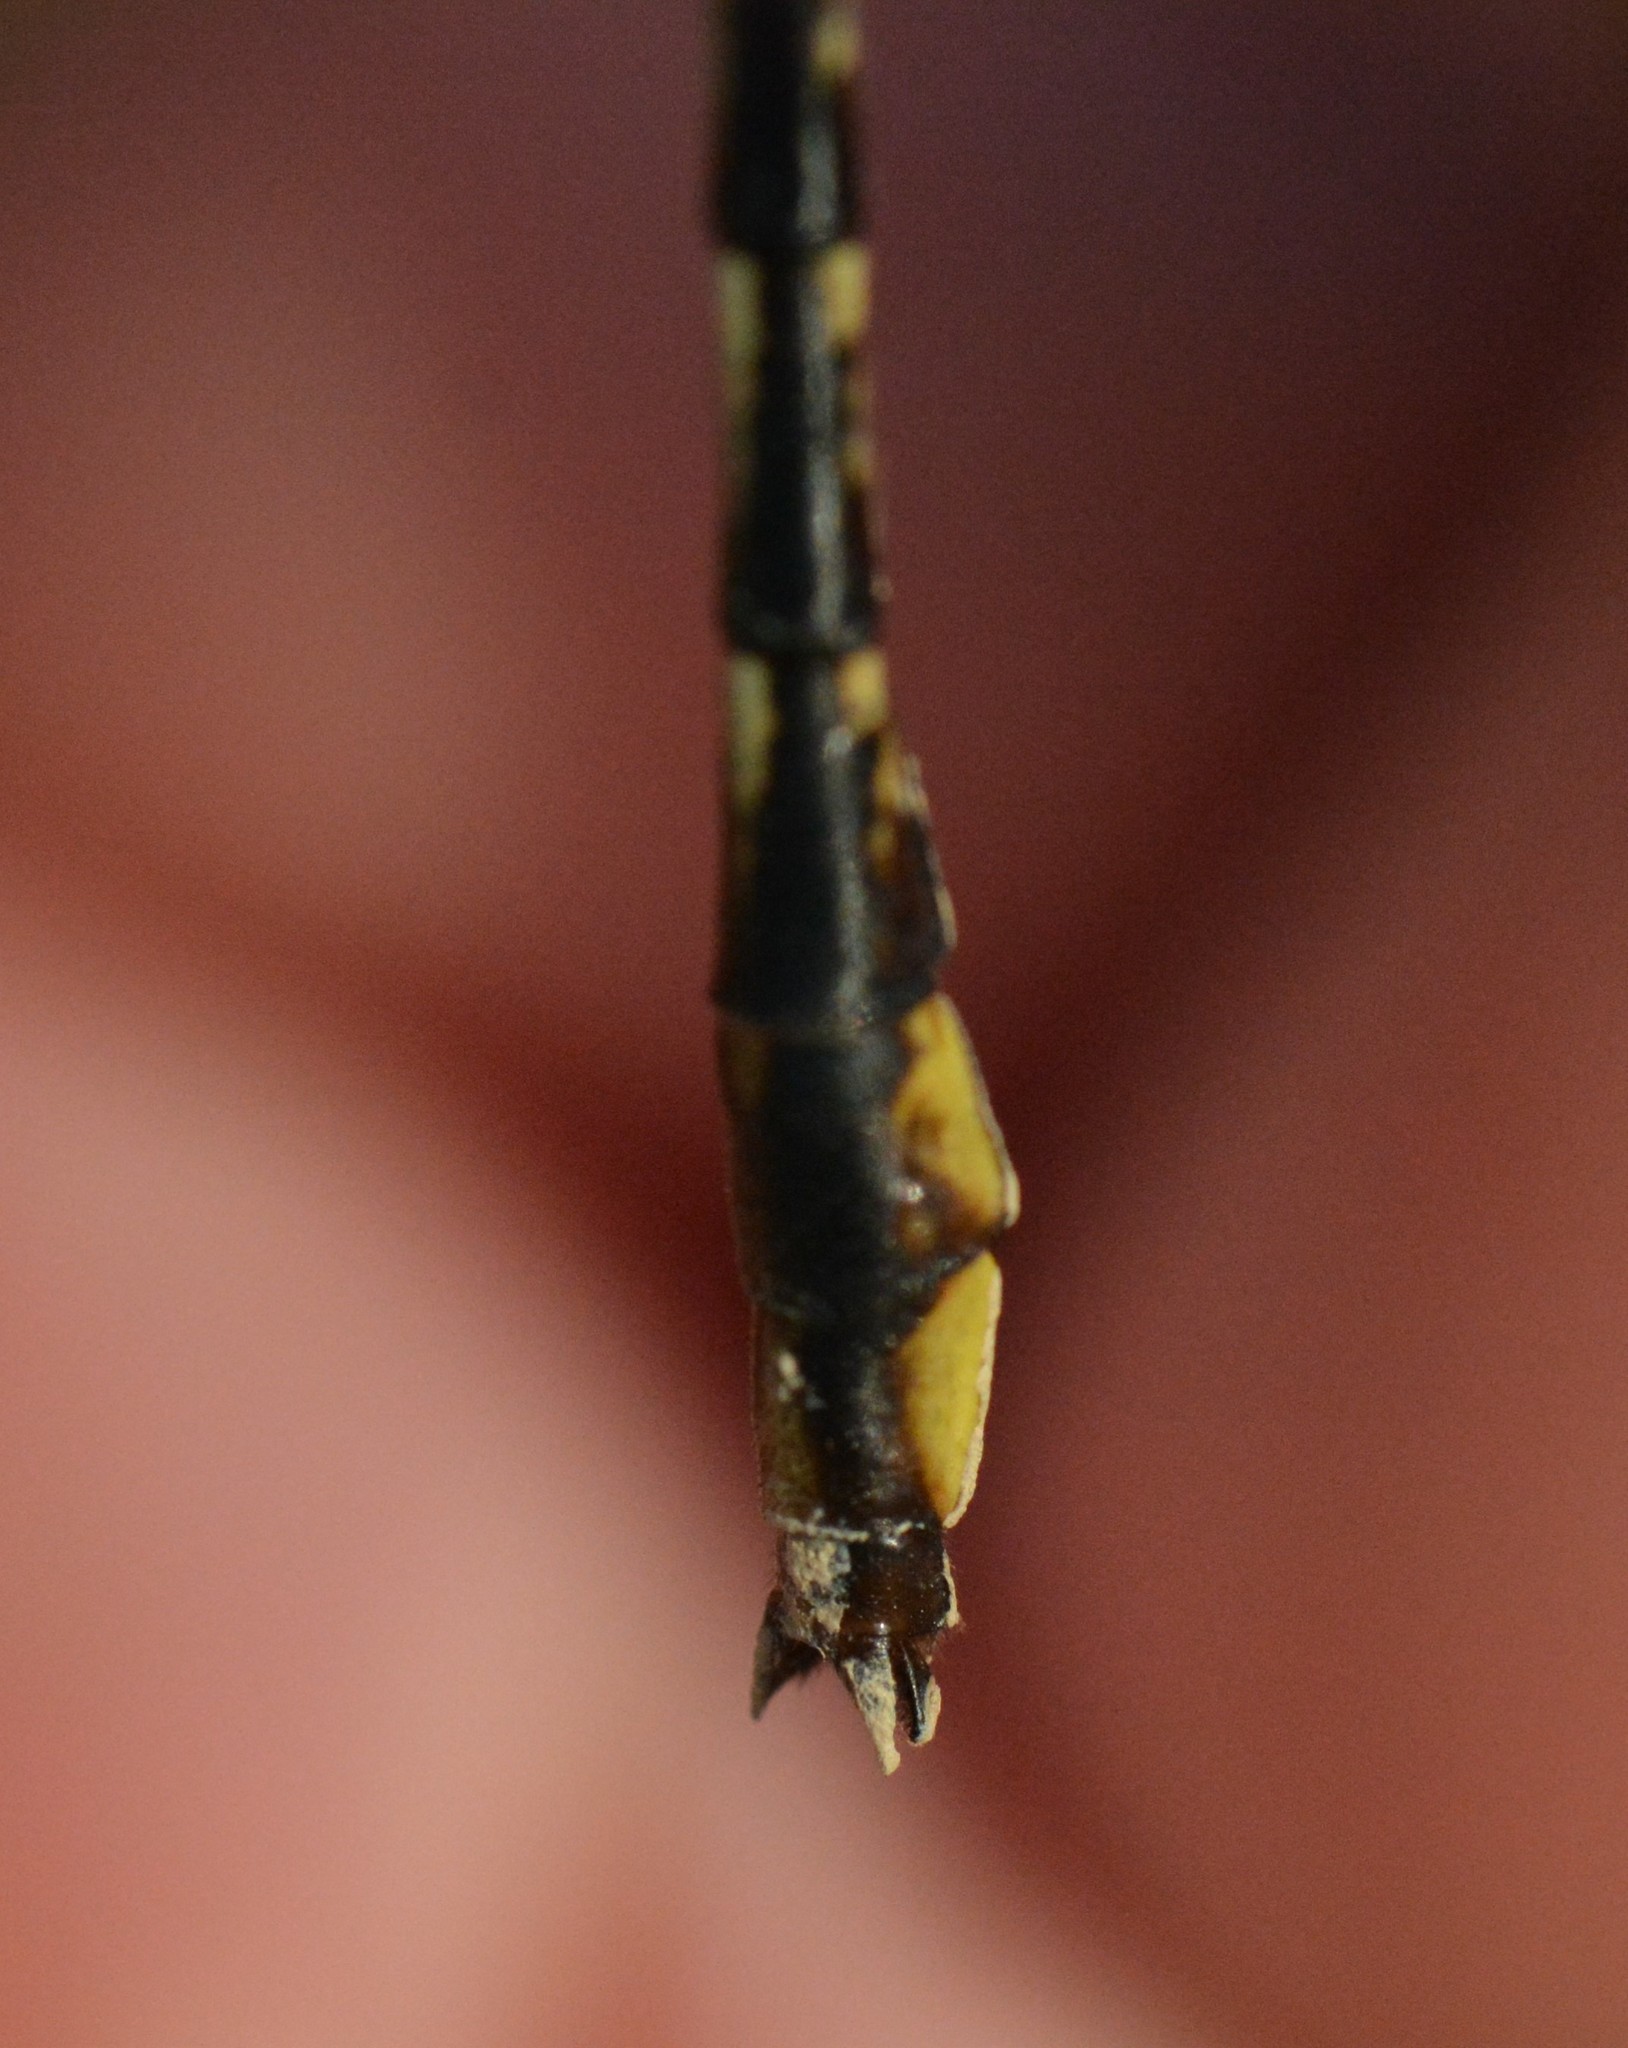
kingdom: Animalia
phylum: Arthropoda
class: Insecta
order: Odonata
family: Gomphidae
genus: Phanogomphus
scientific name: Phanogomphus exilis
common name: Lancet clubtail
